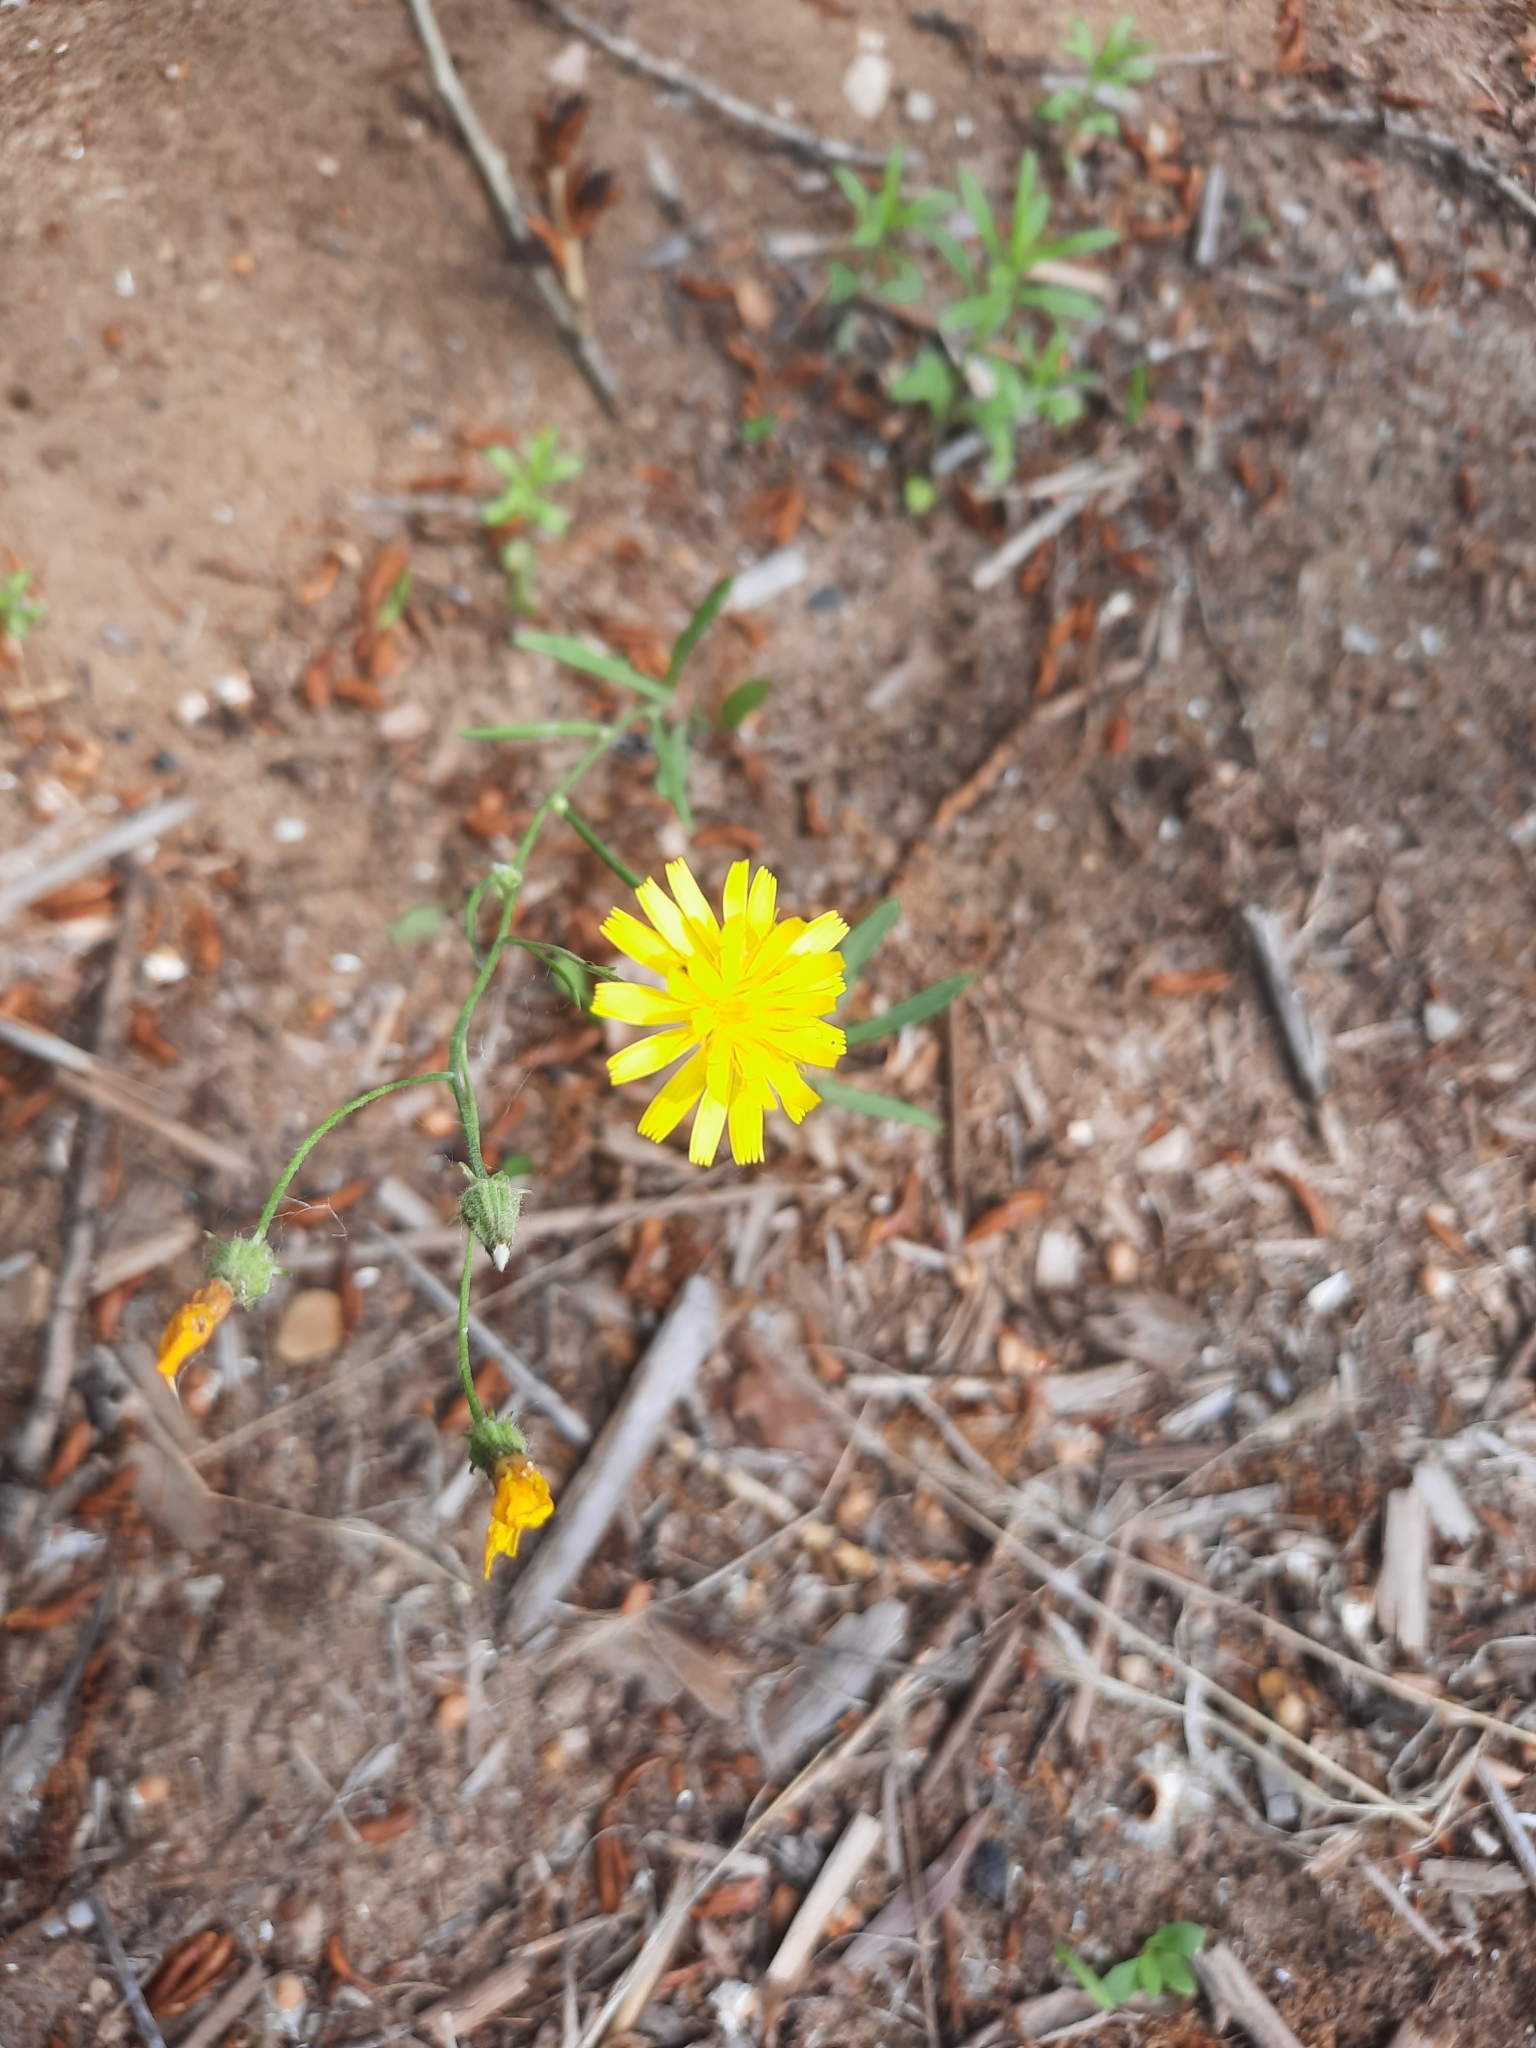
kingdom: Plantae
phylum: Tracheophyta
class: Magnoliopsida
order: Asterales
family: Asteraceae
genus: Crepis
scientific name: Crepis tectorum
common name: Narrow-leaved hawk's-beard
